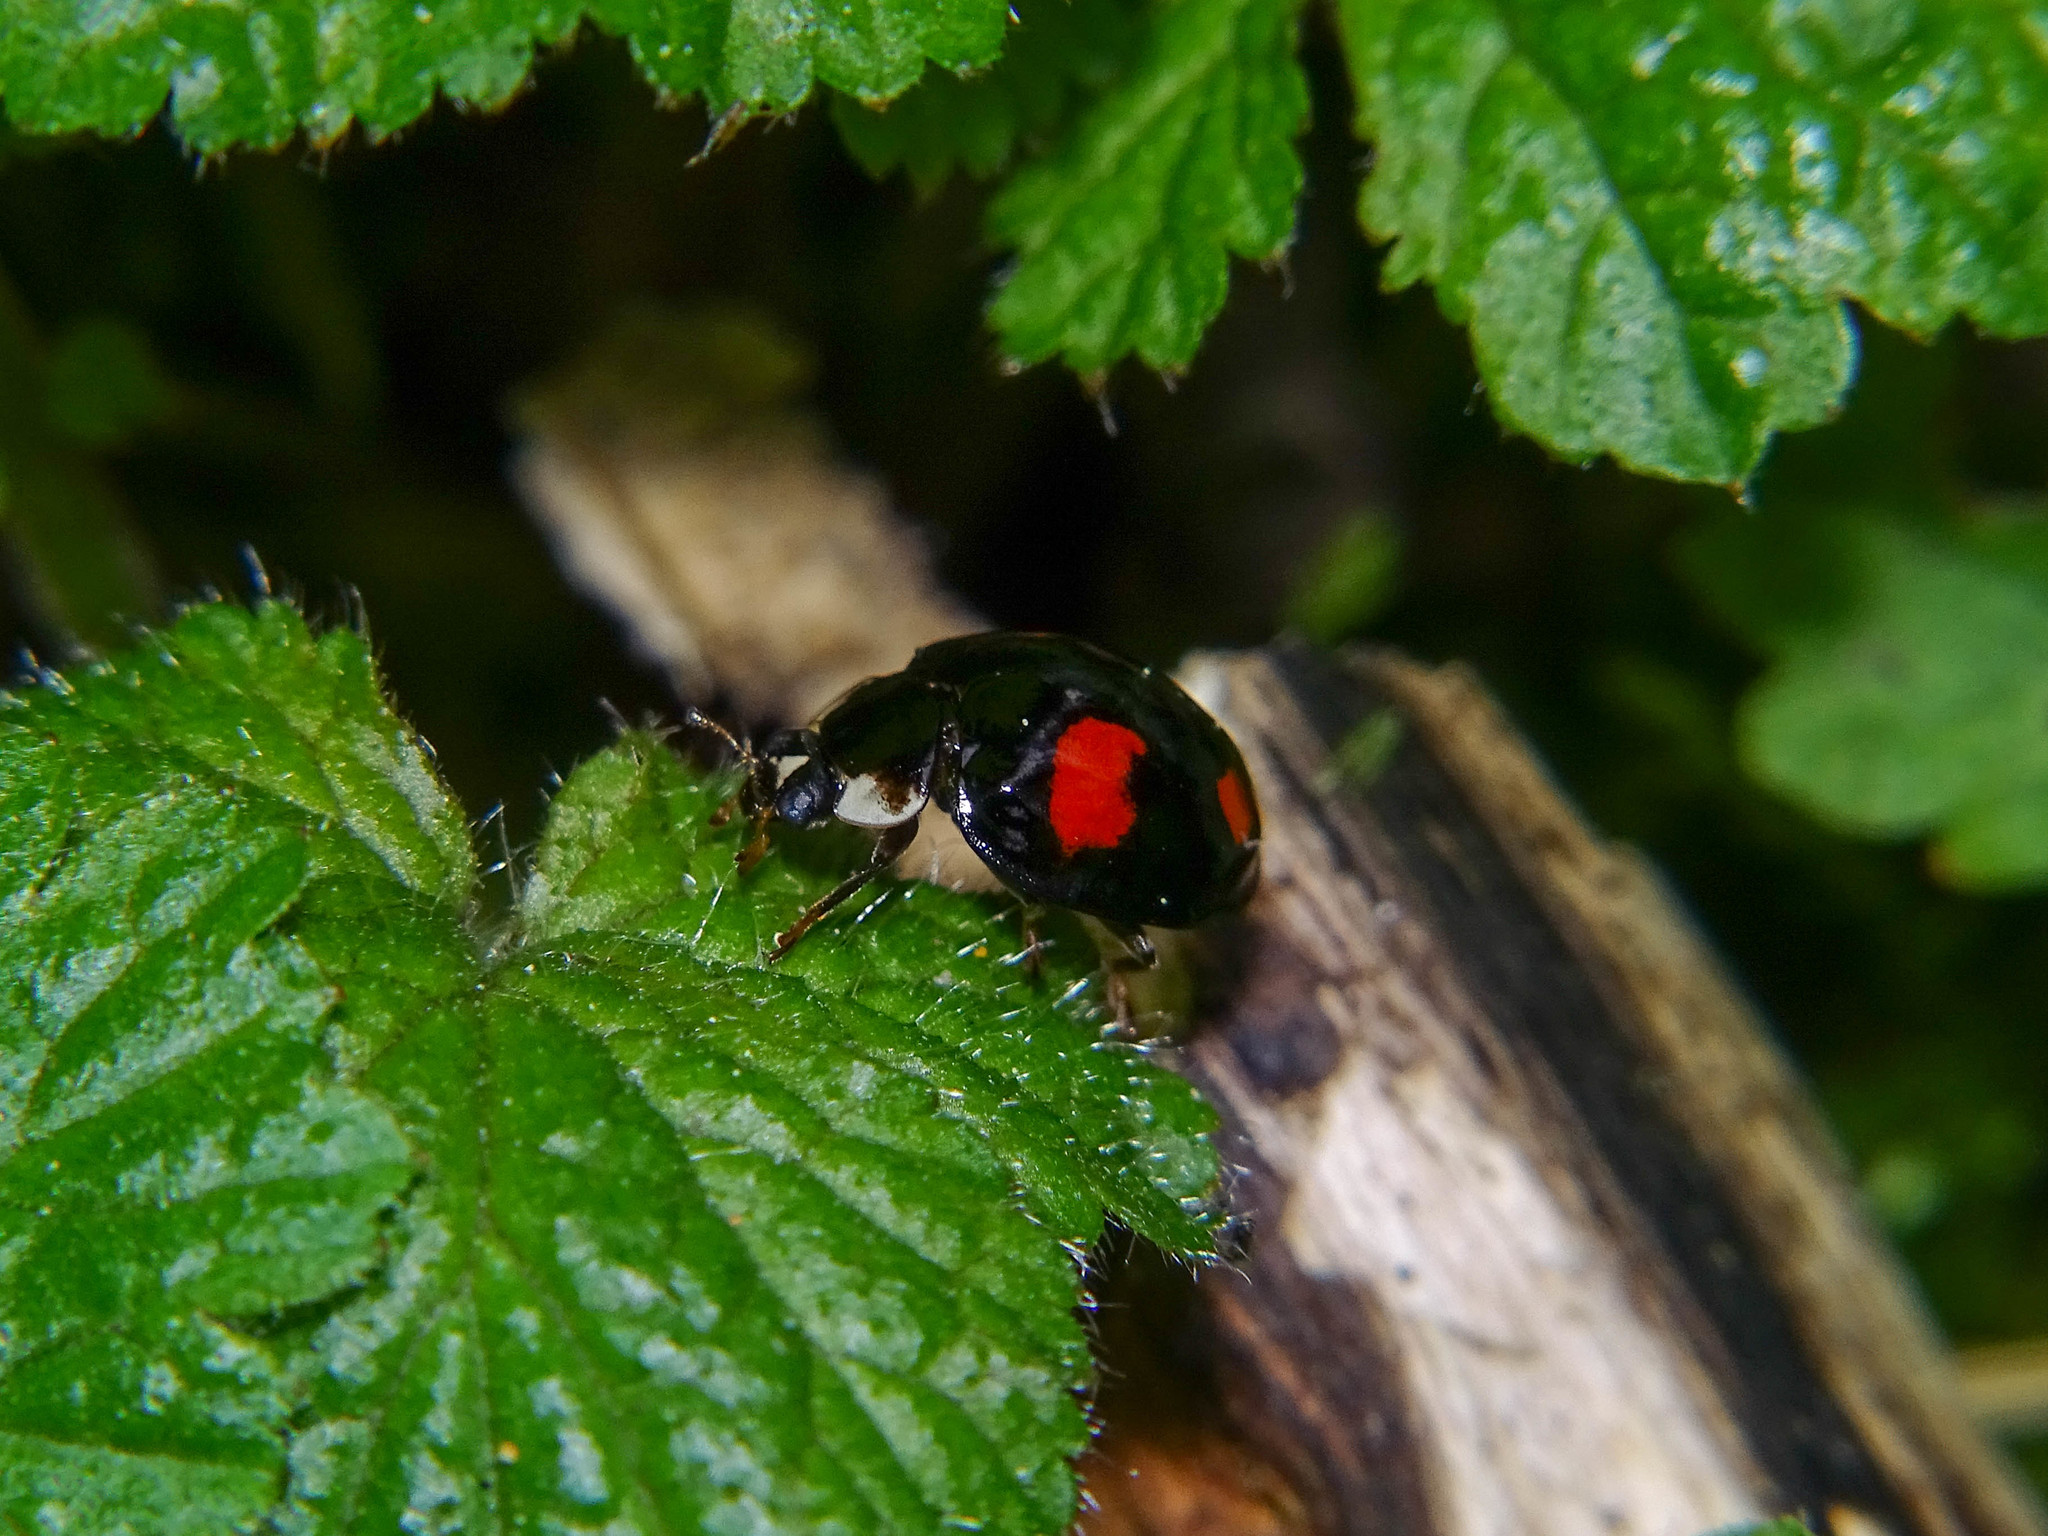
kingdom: Animalia
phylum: Arthropoda
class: Insecta
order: Coleoptera
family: Coccinellidae
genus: Harmonia
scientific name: Harmonia axyridis
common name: Harlequin ladybird
